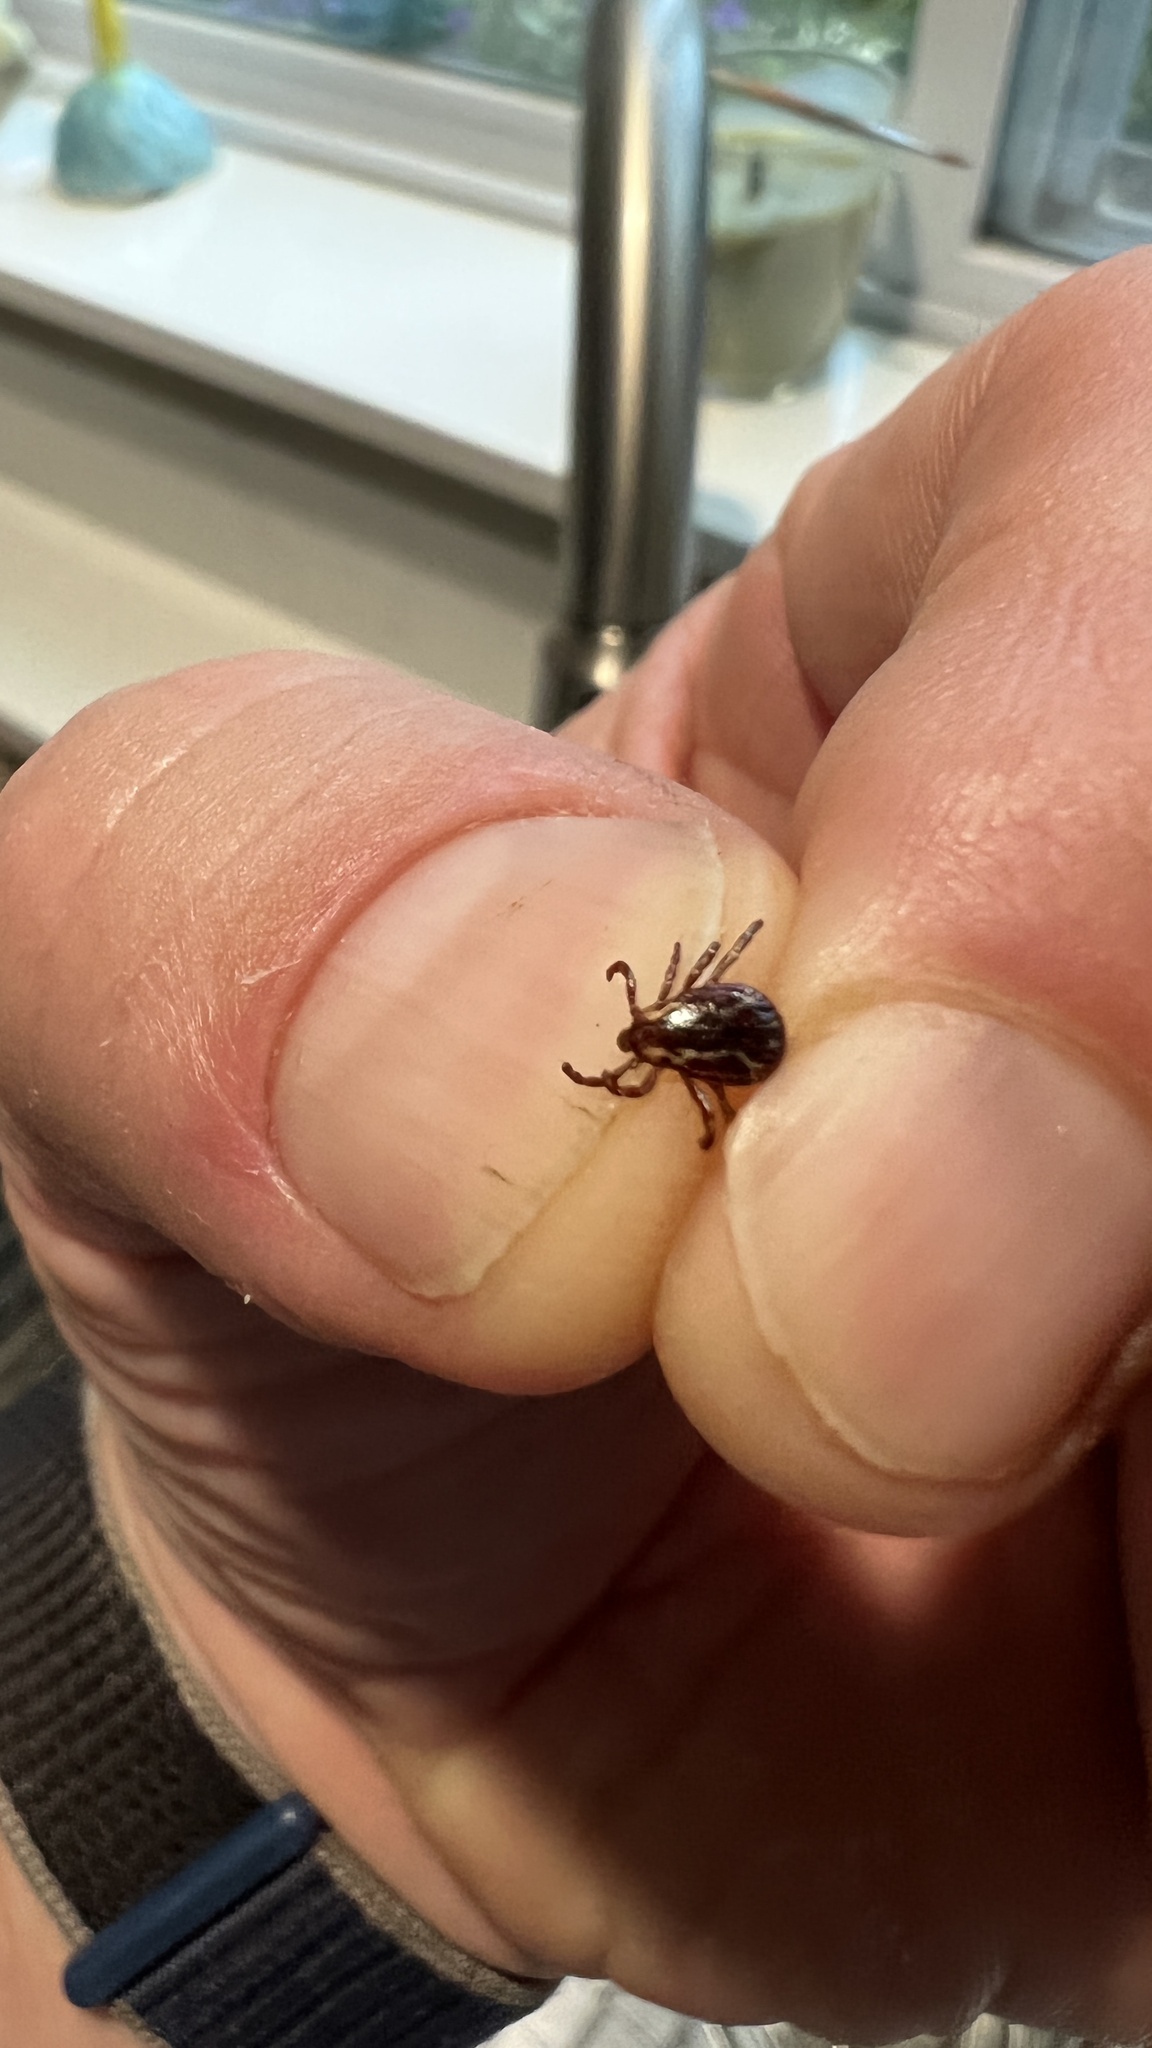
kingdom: Animalia
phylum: Arthropoda
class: Arachnida
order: Ixodida
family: Ixodidae
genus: Dermacentor
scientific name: Dermacentor variabilis
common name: American dog tick
